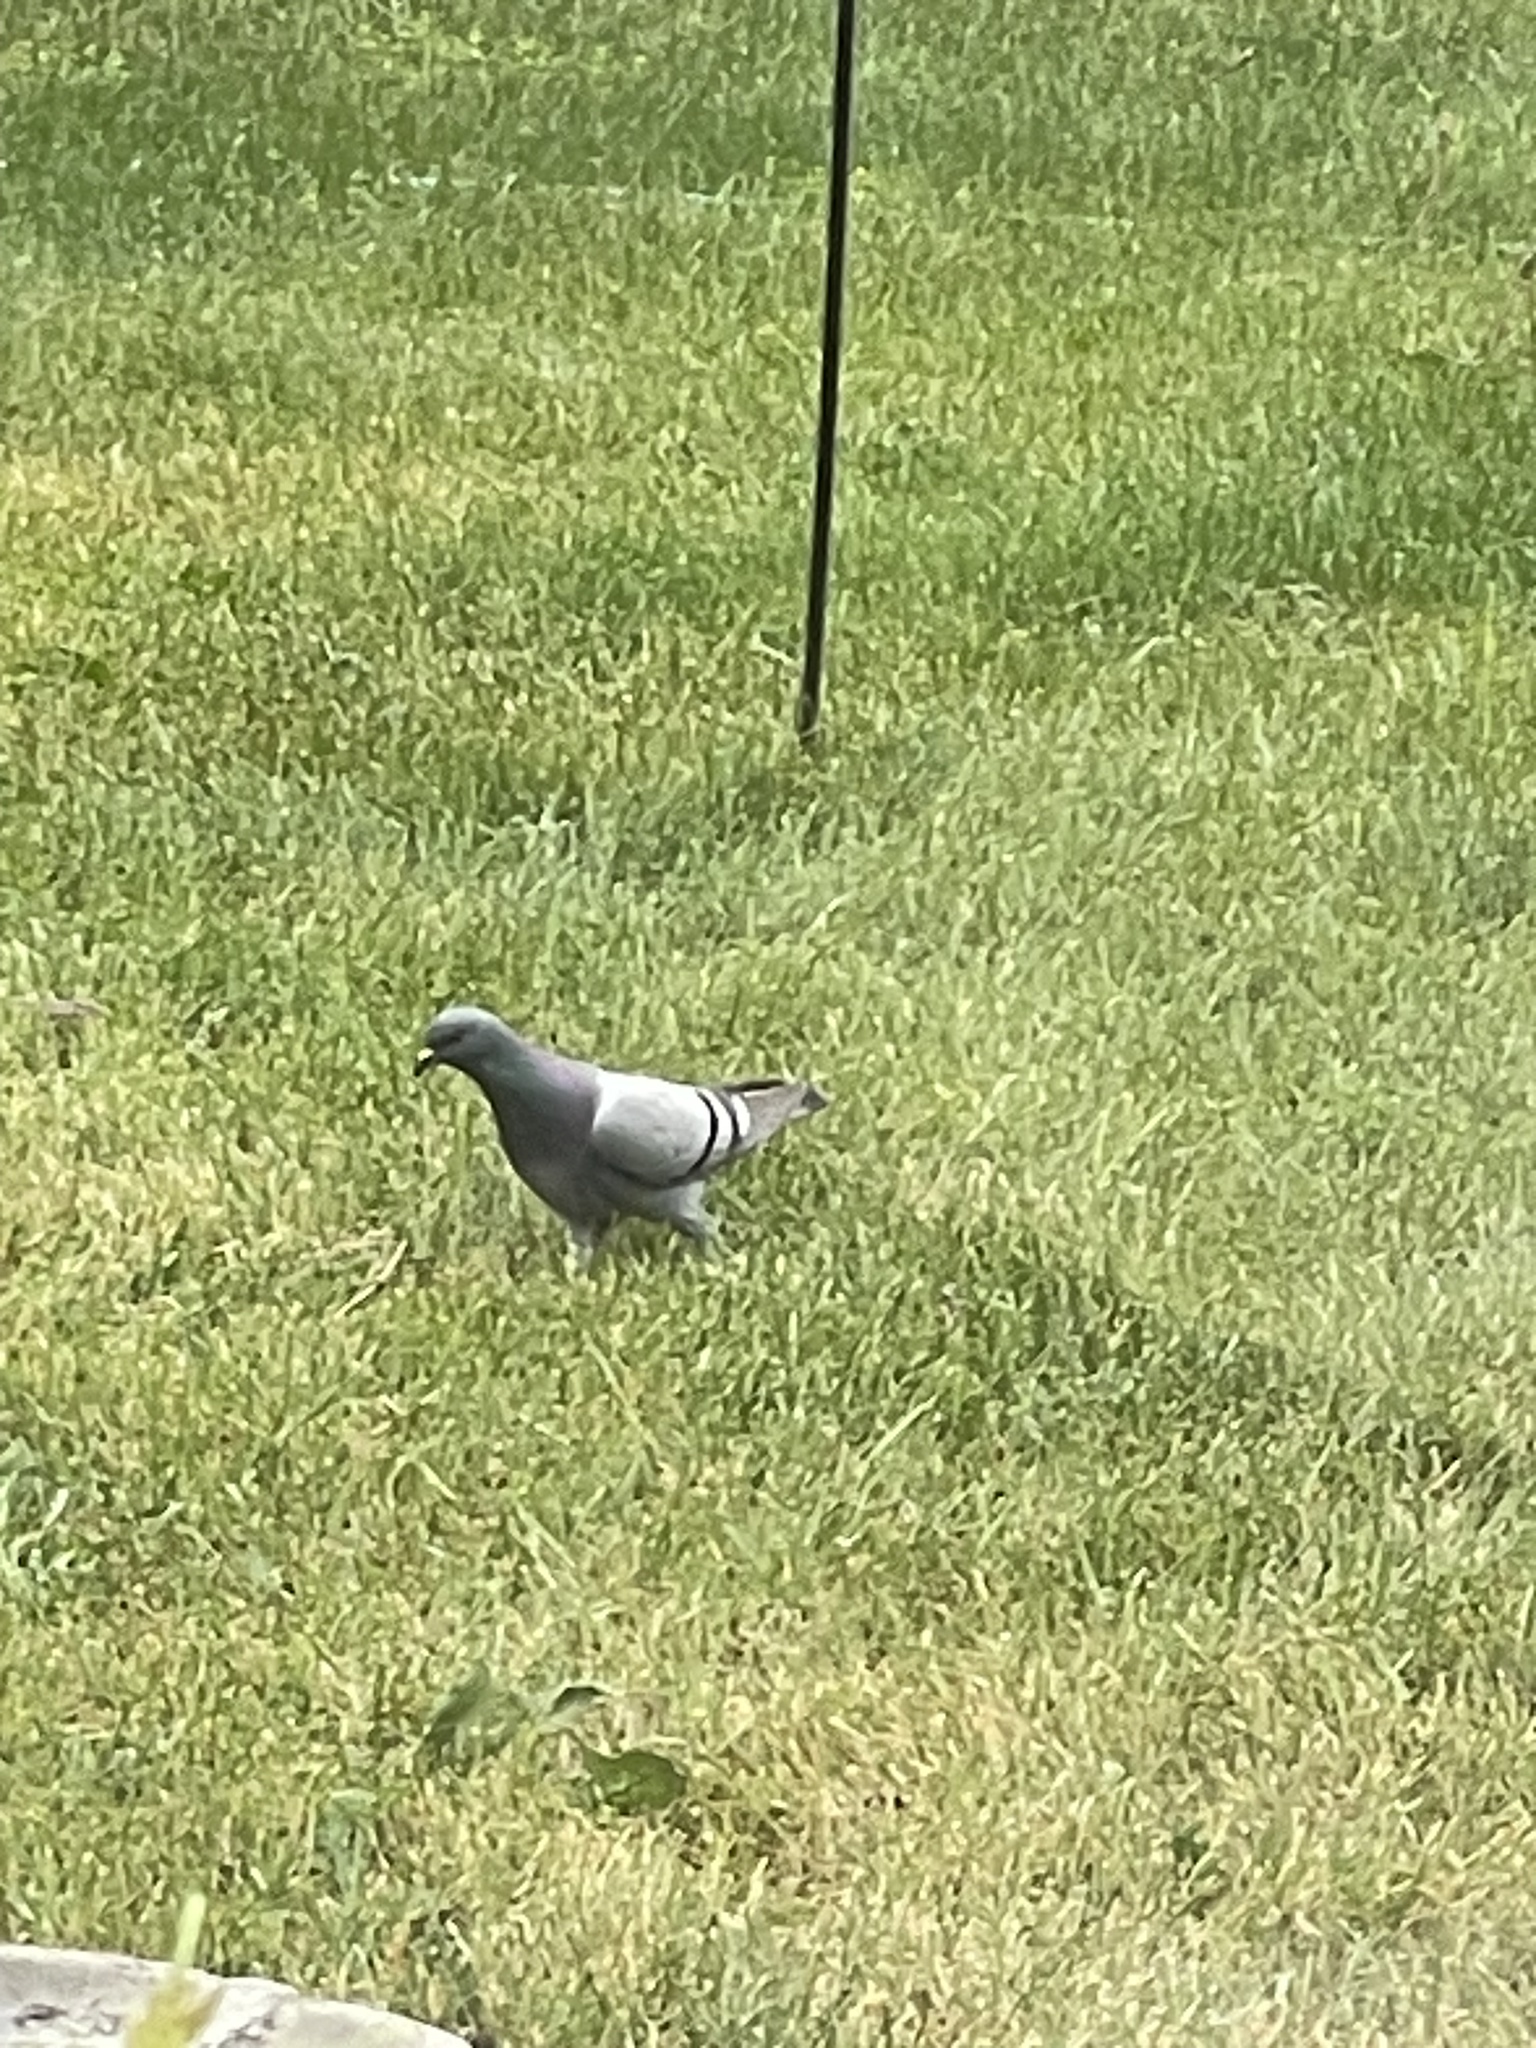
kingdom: Animalia
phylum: Chordata
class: Aves
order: Columbiformes
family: Columbidae
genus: Columba
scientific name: Columba livia
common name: Rock pigeon
